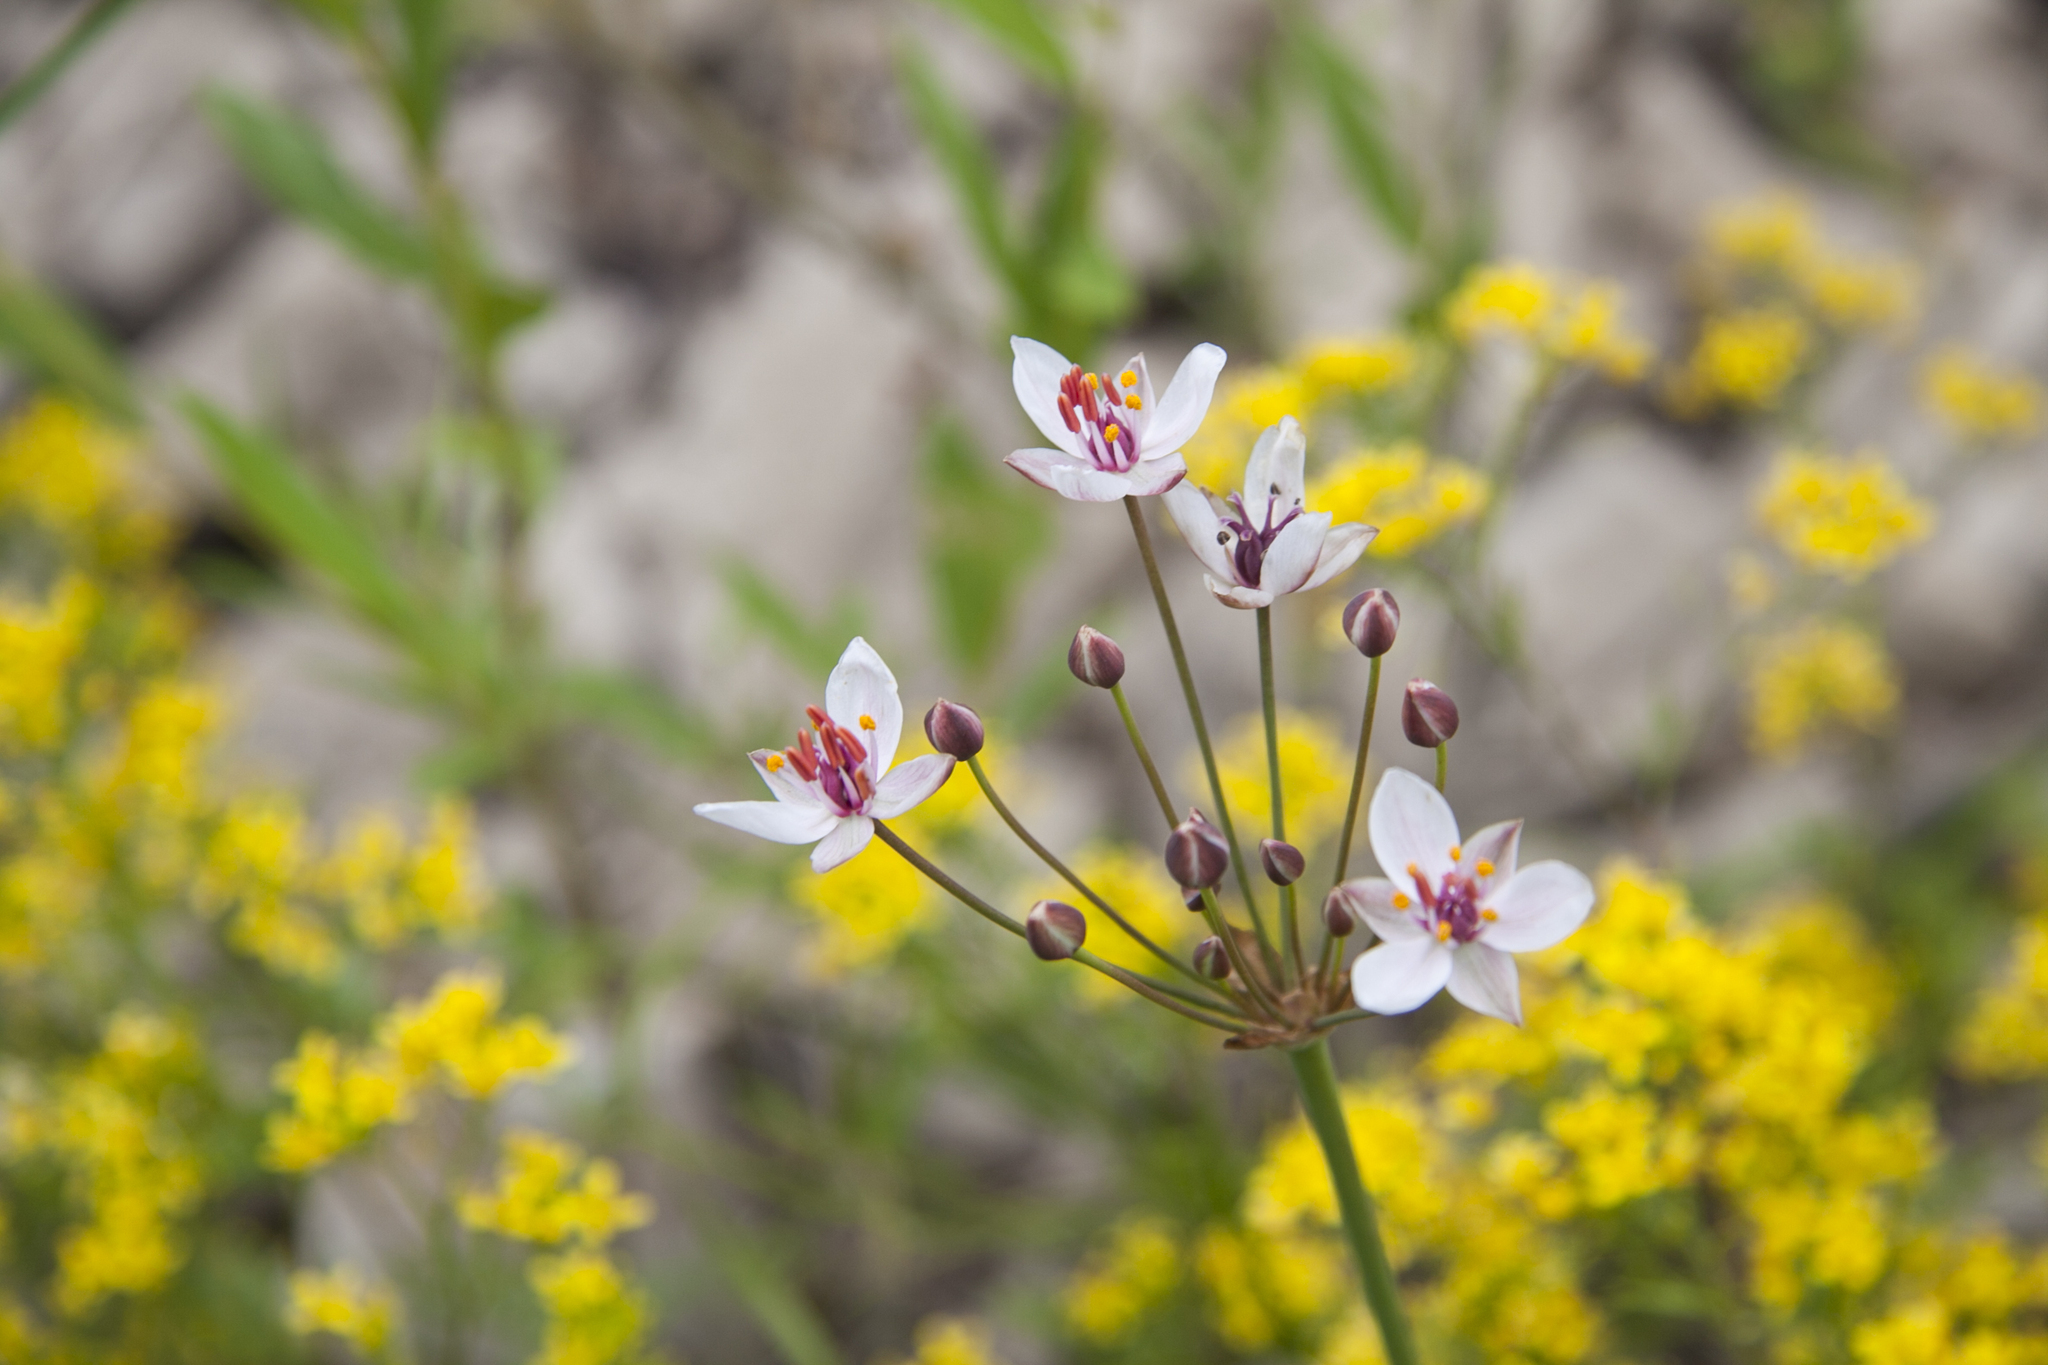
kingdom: Plantae
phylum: Tracheophyta
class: Liliopsida
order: Alismatales
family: Butomaceae
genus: Butomus
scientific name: Butomus umbellatus
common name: Flowering-rush
